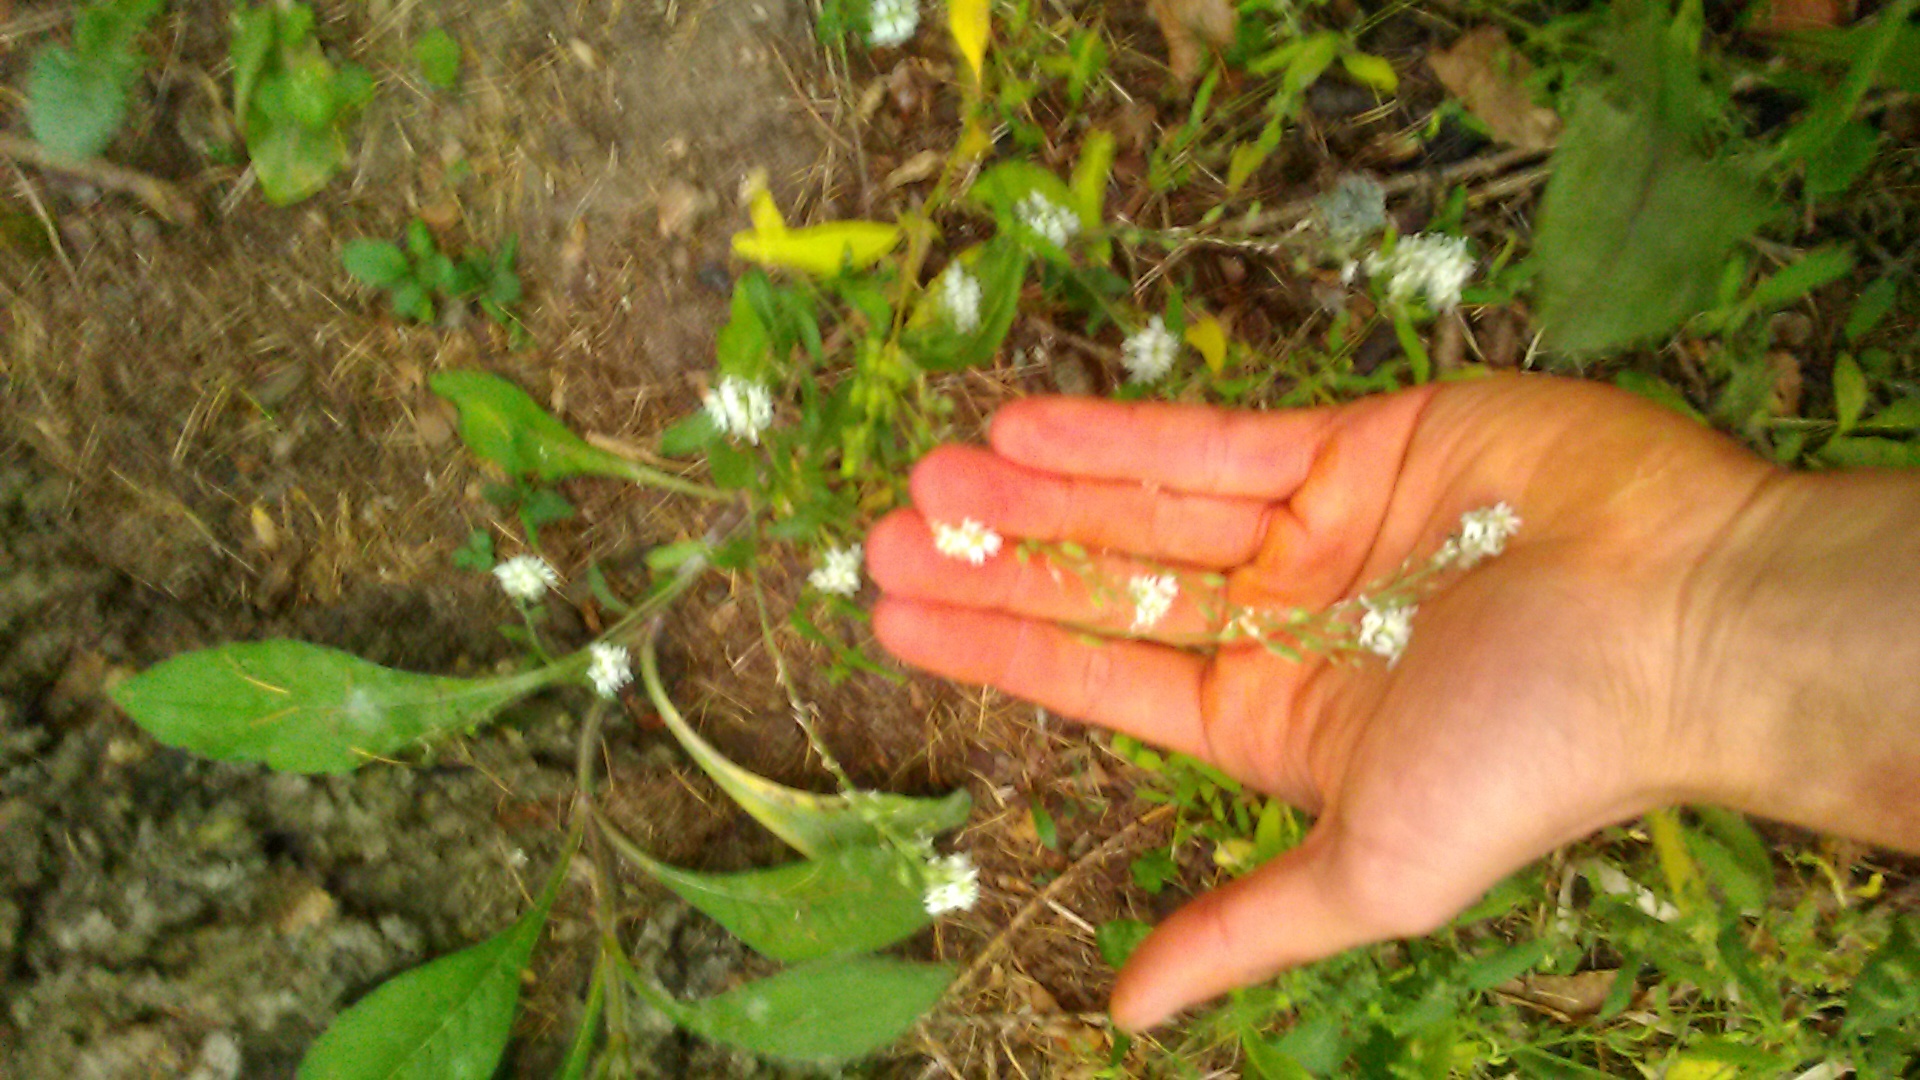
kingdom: Plantae
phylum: Tracheophyta
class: Magnoliopsida
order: Brassicales
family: Brassicaceae
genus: Berteroa
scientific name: Berteroa incana
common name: Hoary alison
